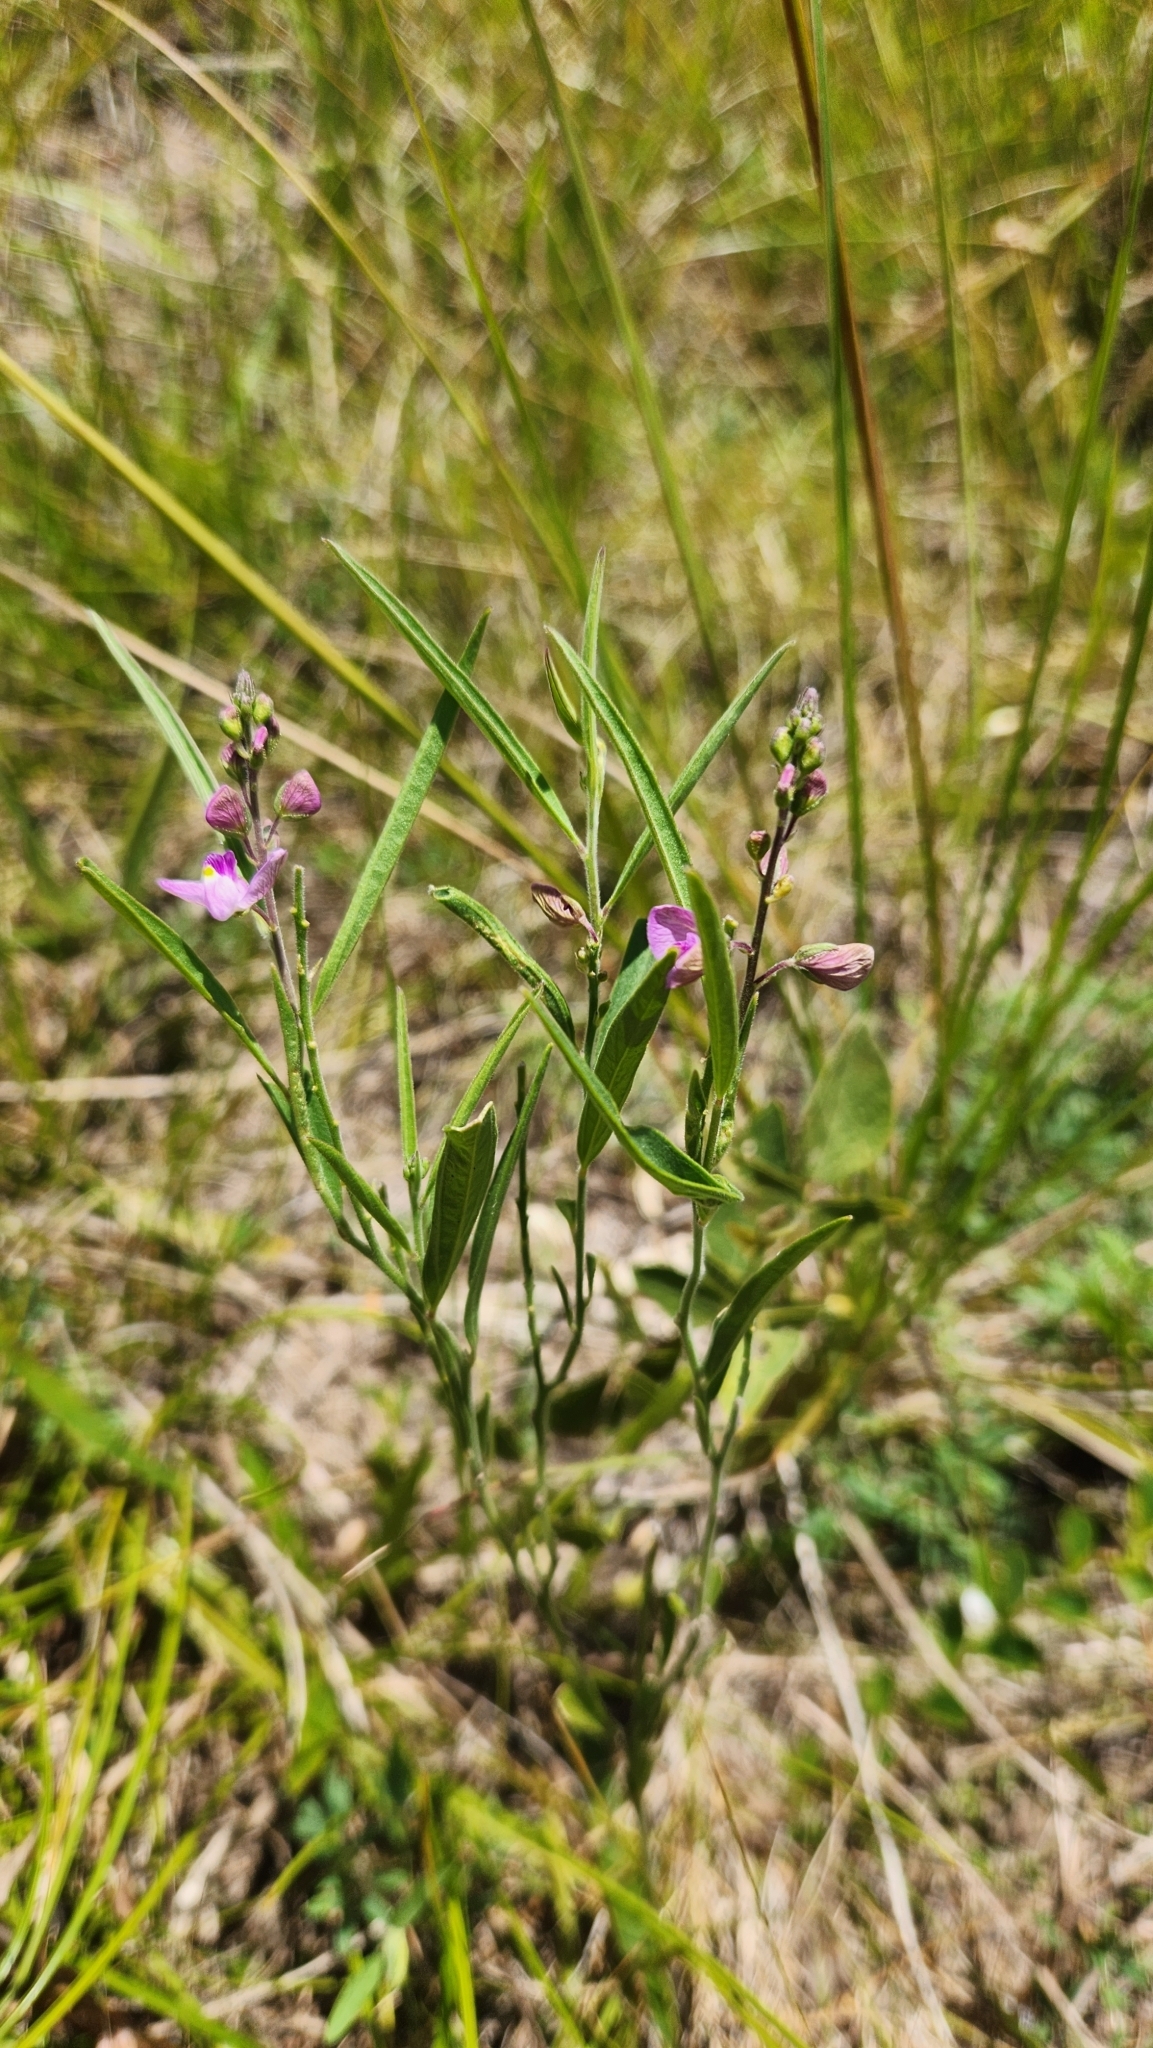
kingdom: Plantae
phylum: Tracheophyta
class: Magnoliopsida
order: Fabales
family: Polygalaceae
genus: Asemeia
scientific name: Asemeia extraaxillaris
